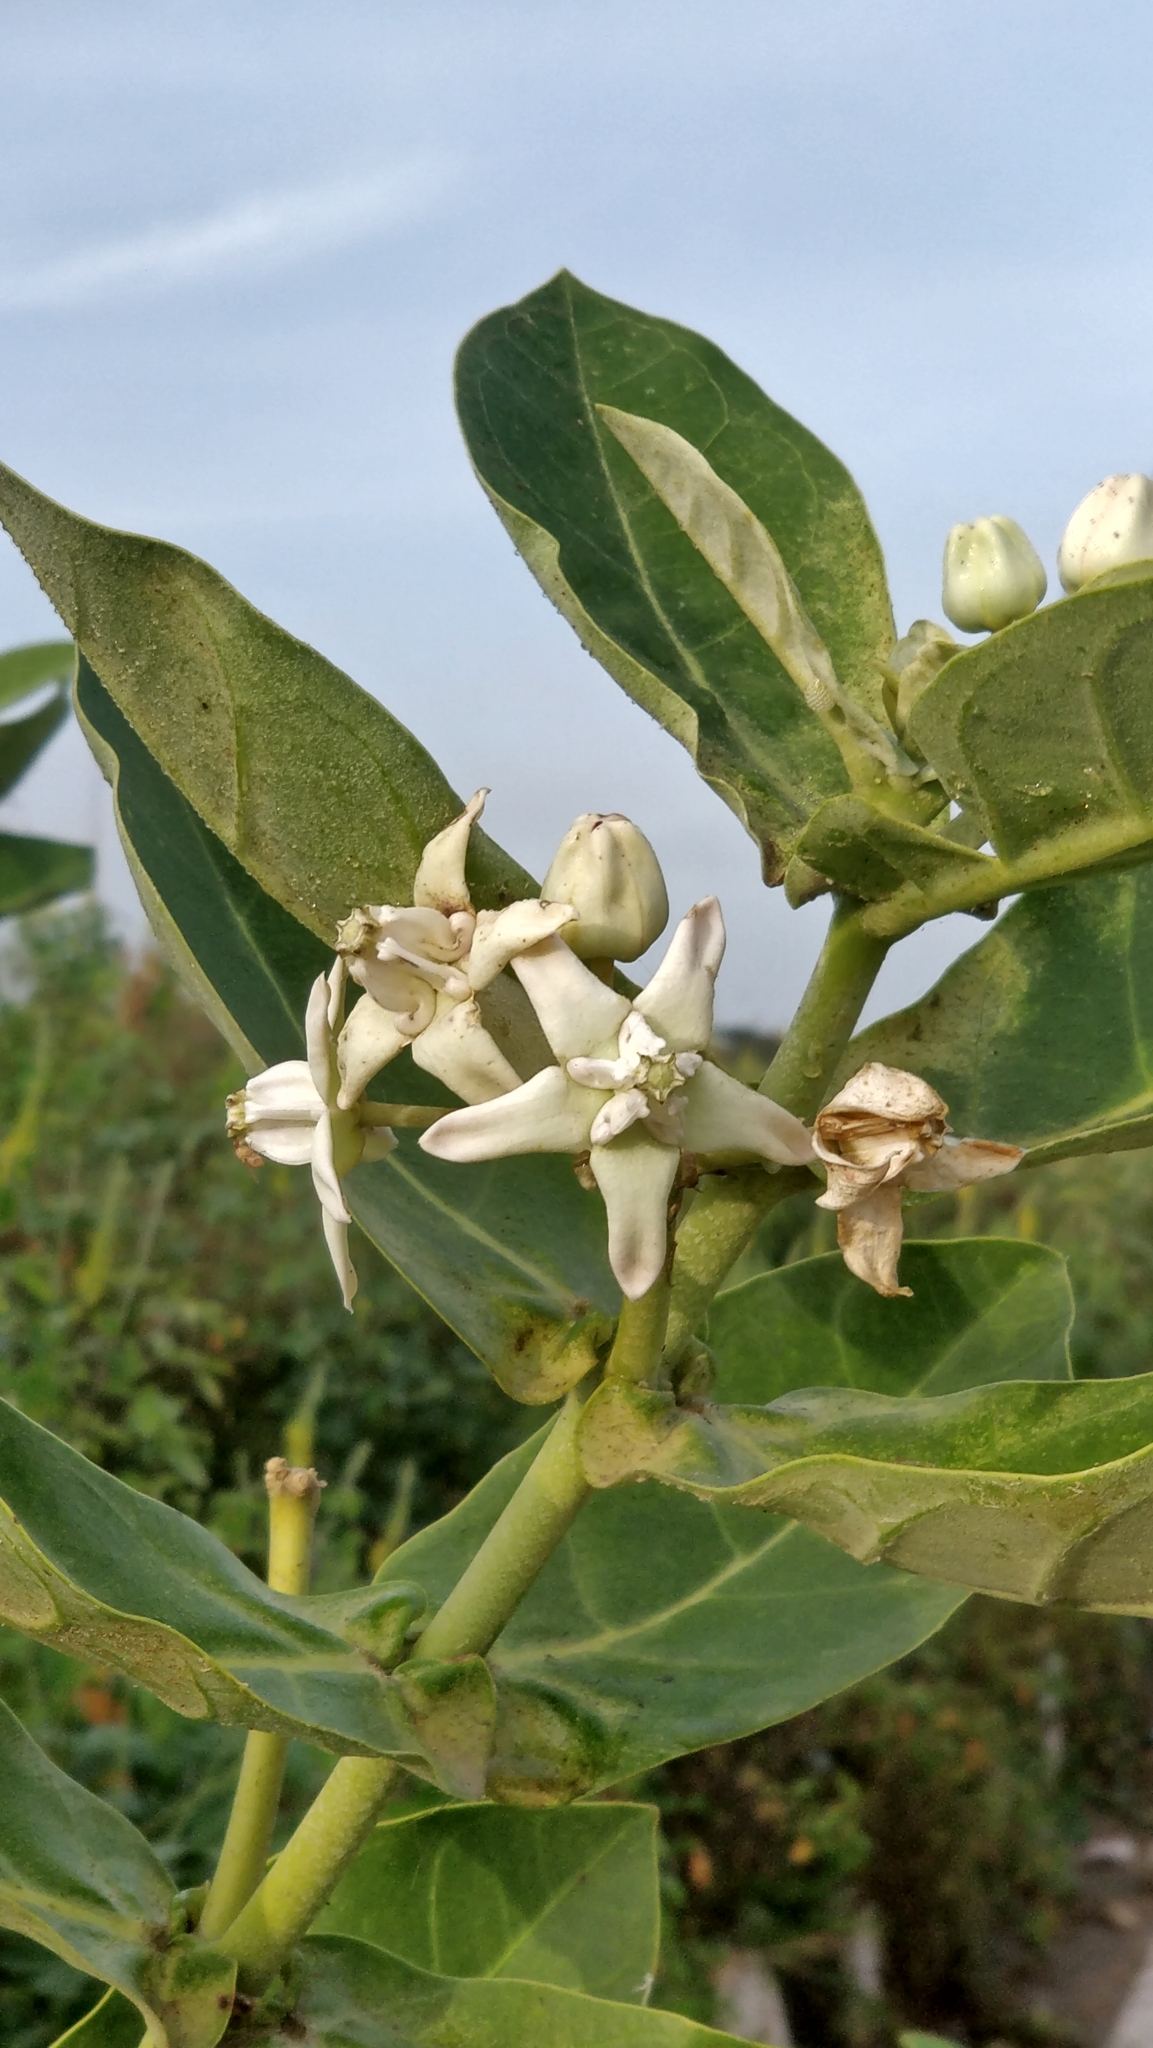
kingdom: Plantae
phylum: Tracheophyta
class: Magnoliopsida
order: Gentianales
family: Apocynaceae
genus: Calotropis
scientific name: Calotropis gigantea
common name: Crown flower
